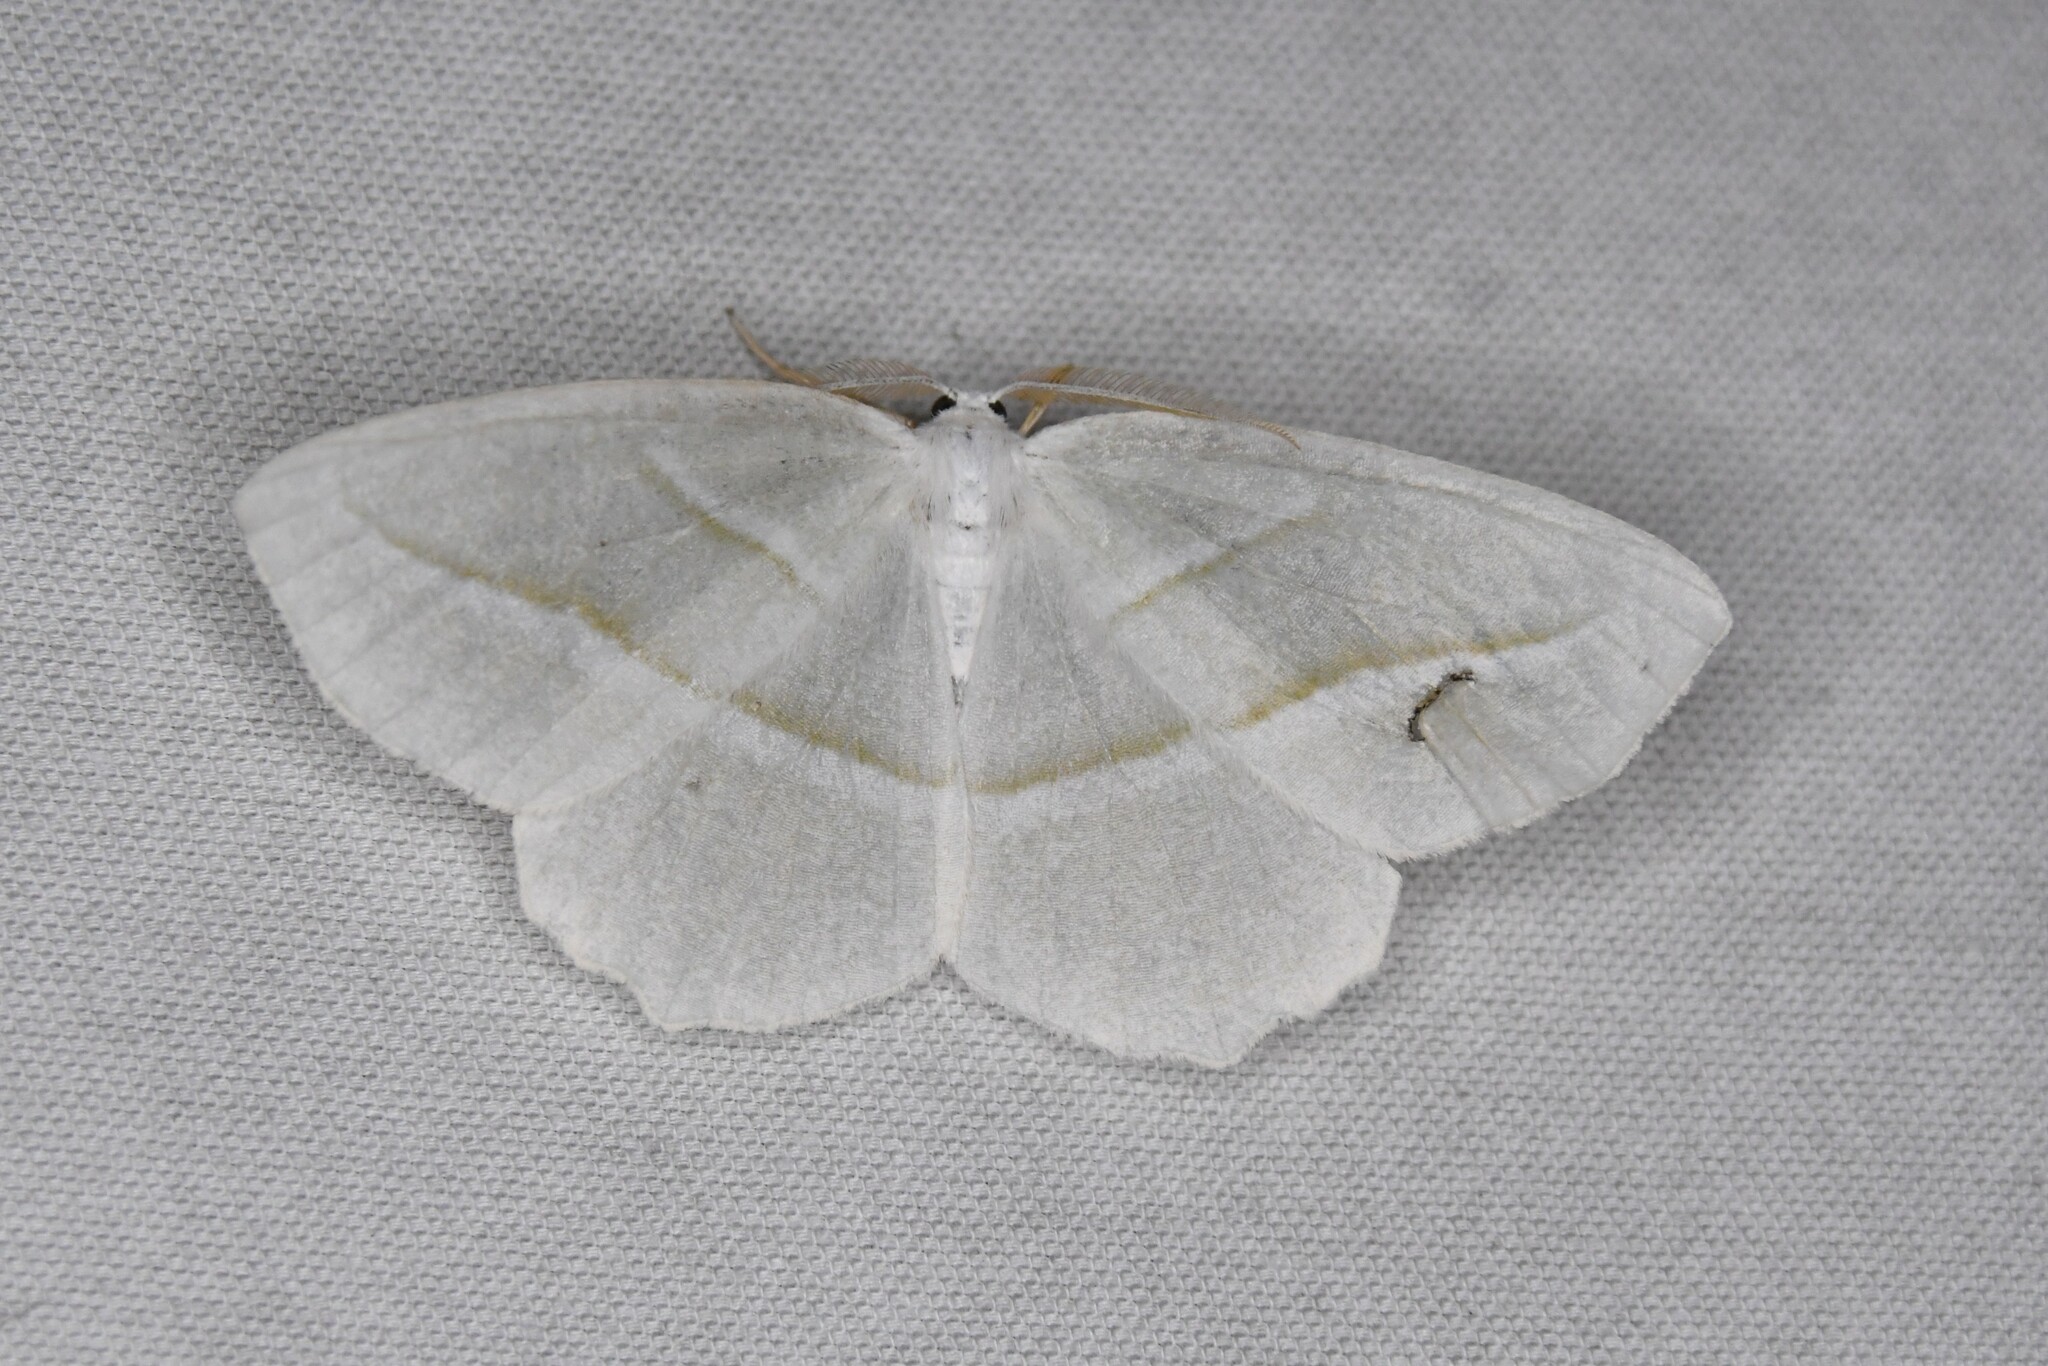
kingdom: Animalia
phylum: Arthropoda
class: Insecta
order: Lepidoptera
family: Geometridae
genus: Campaea
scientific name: Campaea perlata
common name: Fringed looper
